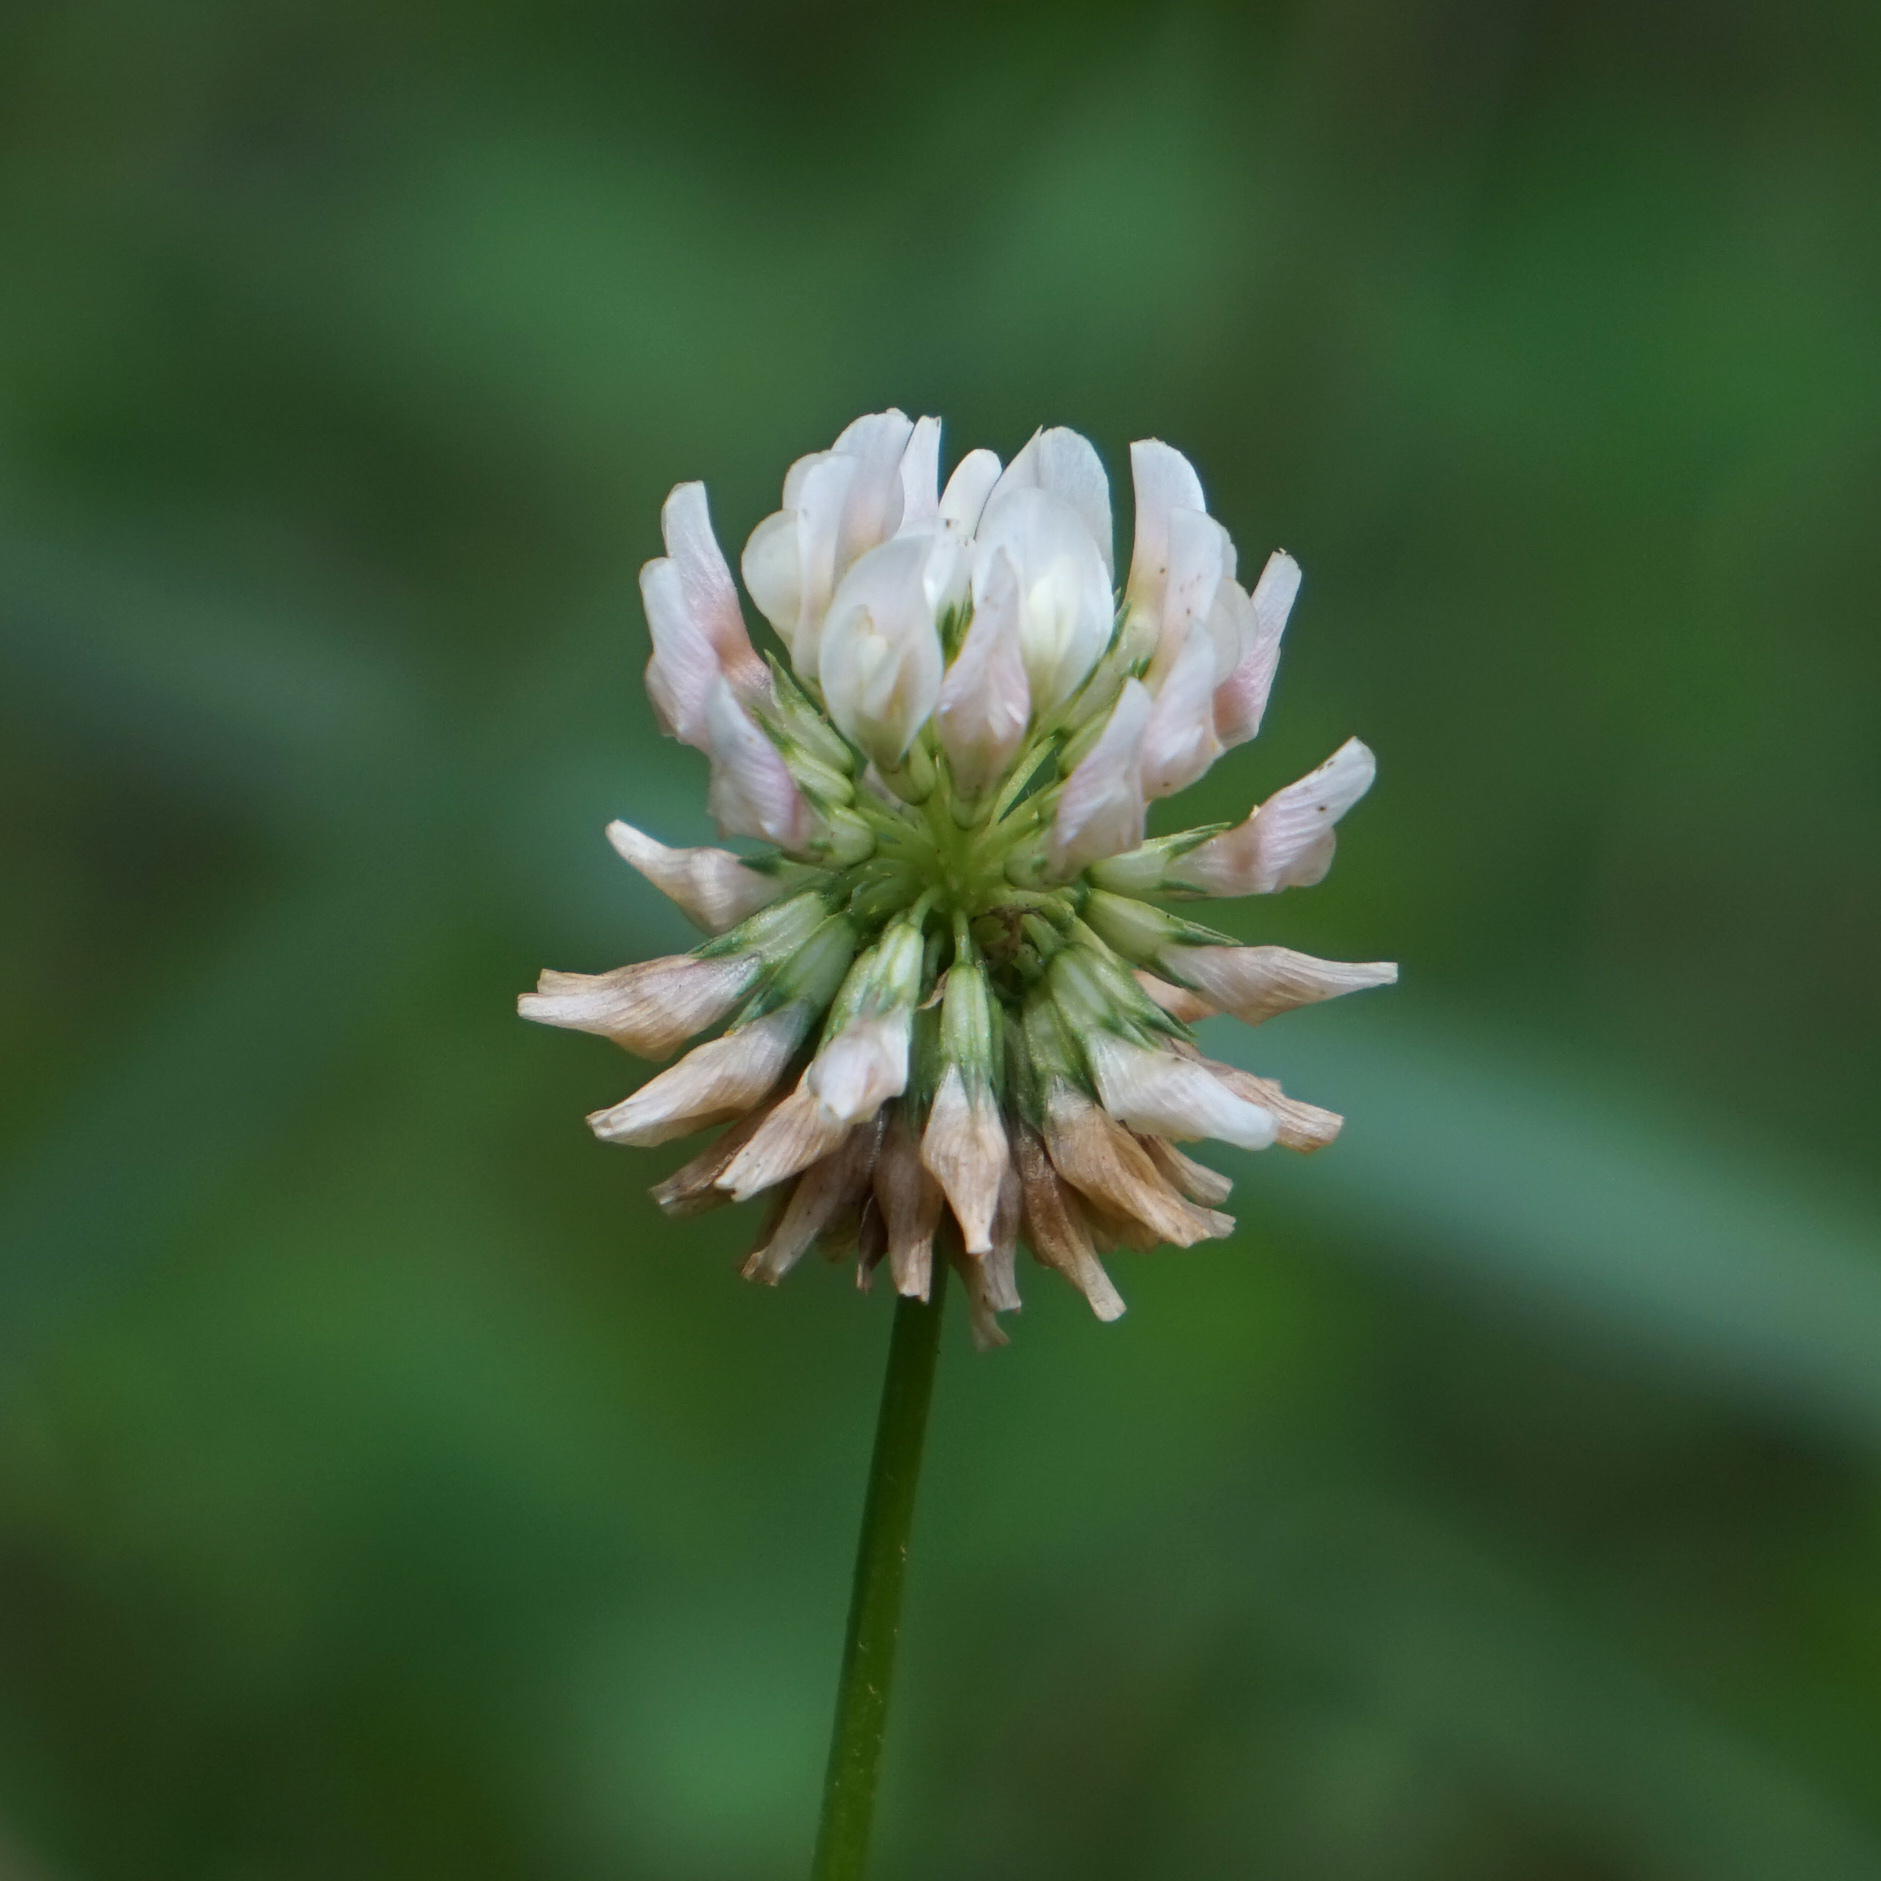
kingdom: Plantae
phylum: Tracheophyta
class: Magnoliopsida
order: Fabales
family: Fabaceae
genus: Trifolium
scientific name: Trifolium repens
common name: White clover
